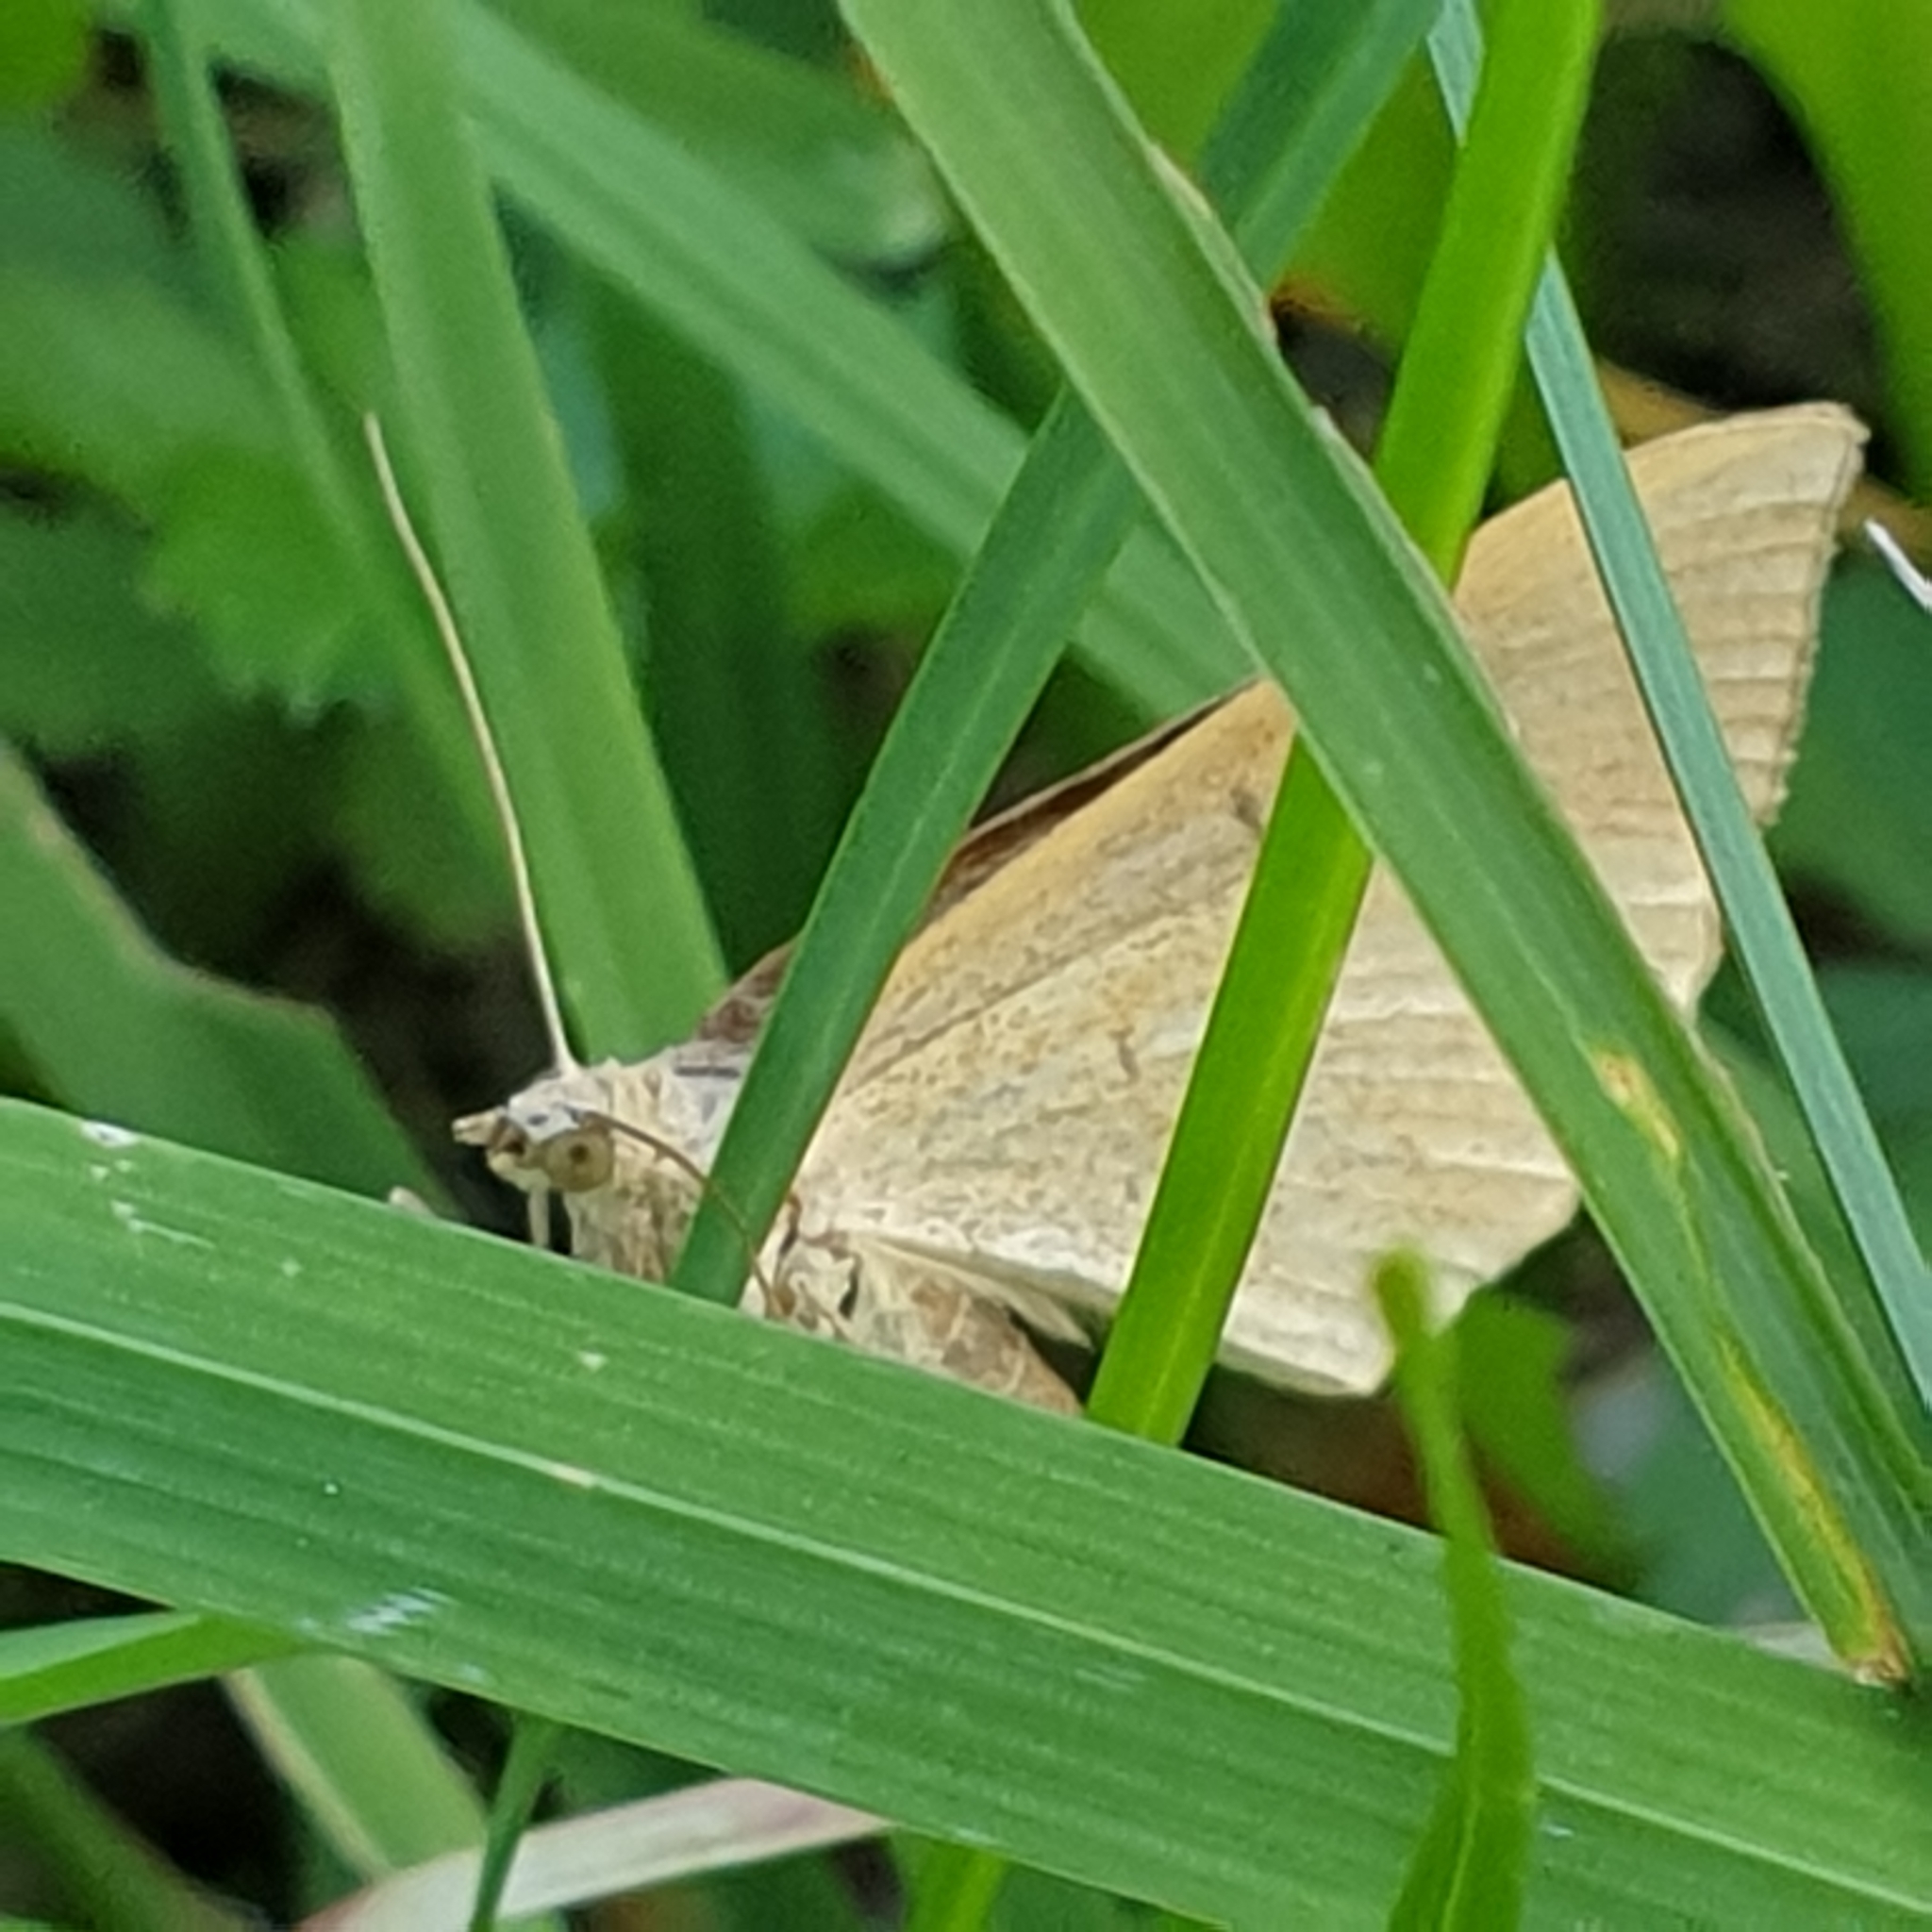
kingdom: Animalia
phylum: Arthropoda
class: Insecta
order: Lepidoptera
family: Geometridae
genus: Scotopteryx
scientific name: Scotopteryx chenopodiata
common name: Shaded broad-bar
